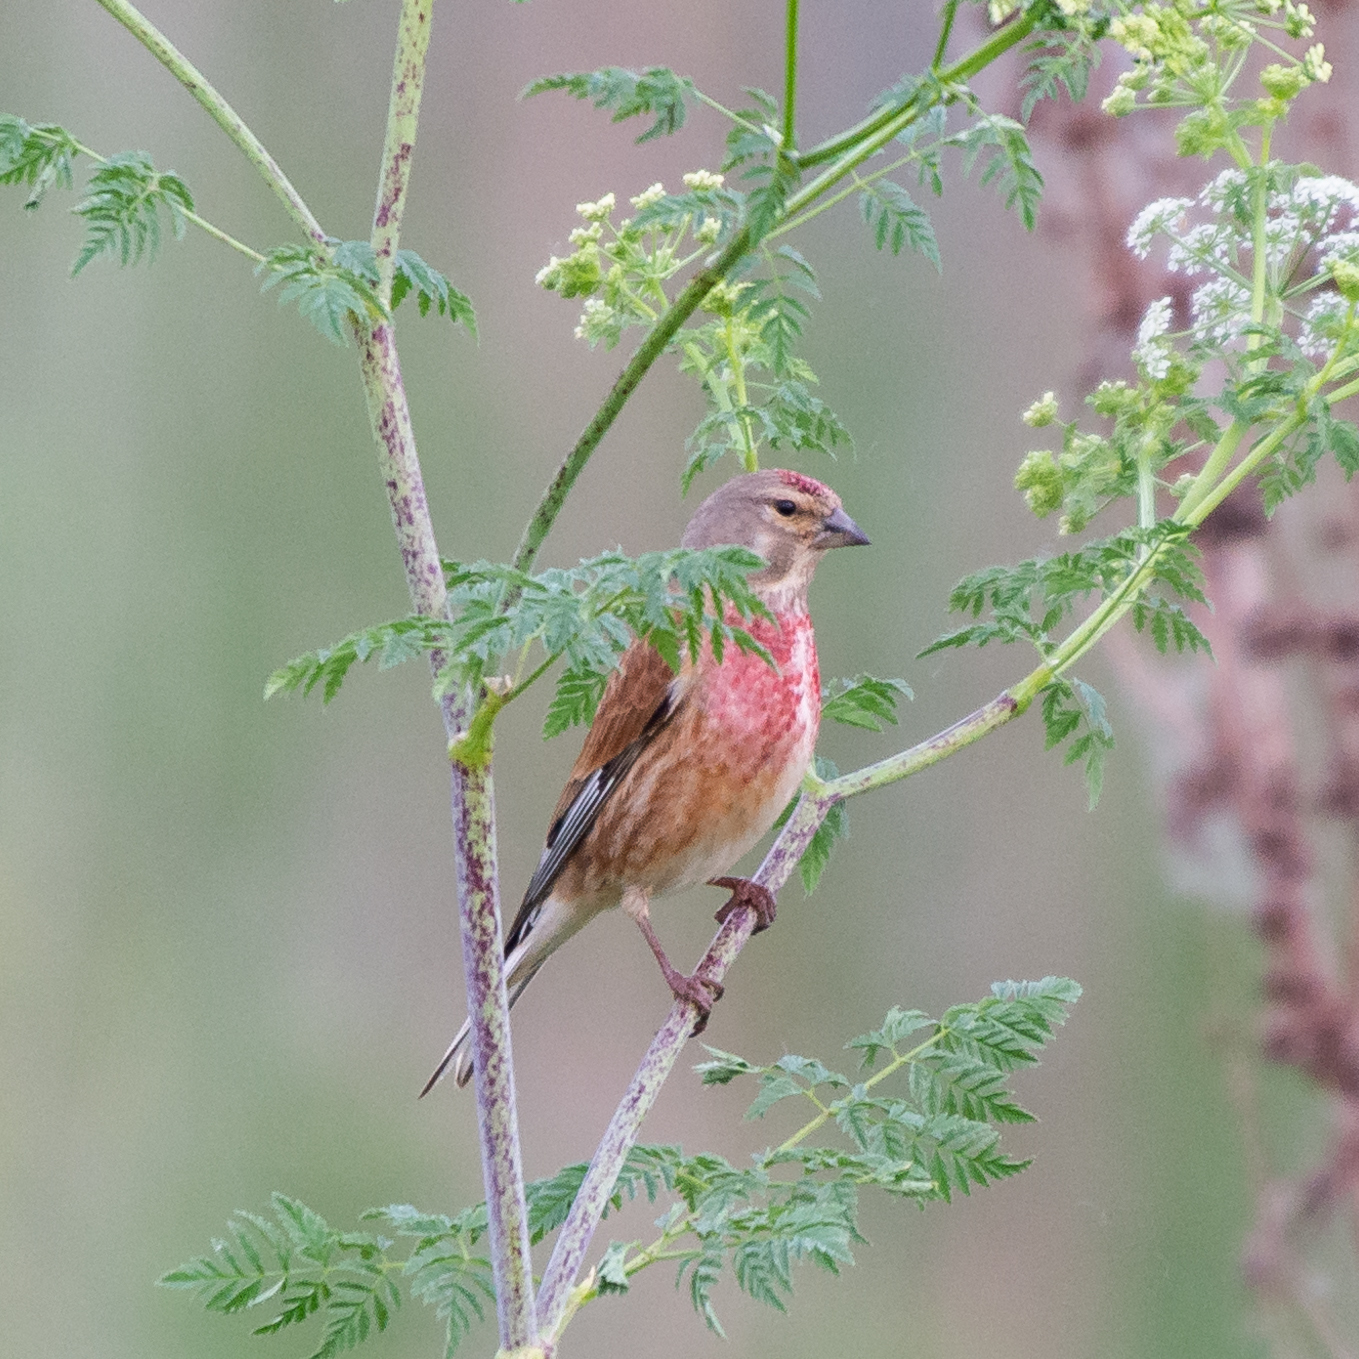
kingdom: Animalia
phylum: Chordata
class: Aves
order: Passeriformes
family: Fringillidae
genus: Linaria
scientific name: Linaria cannabina
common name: Common linnet
